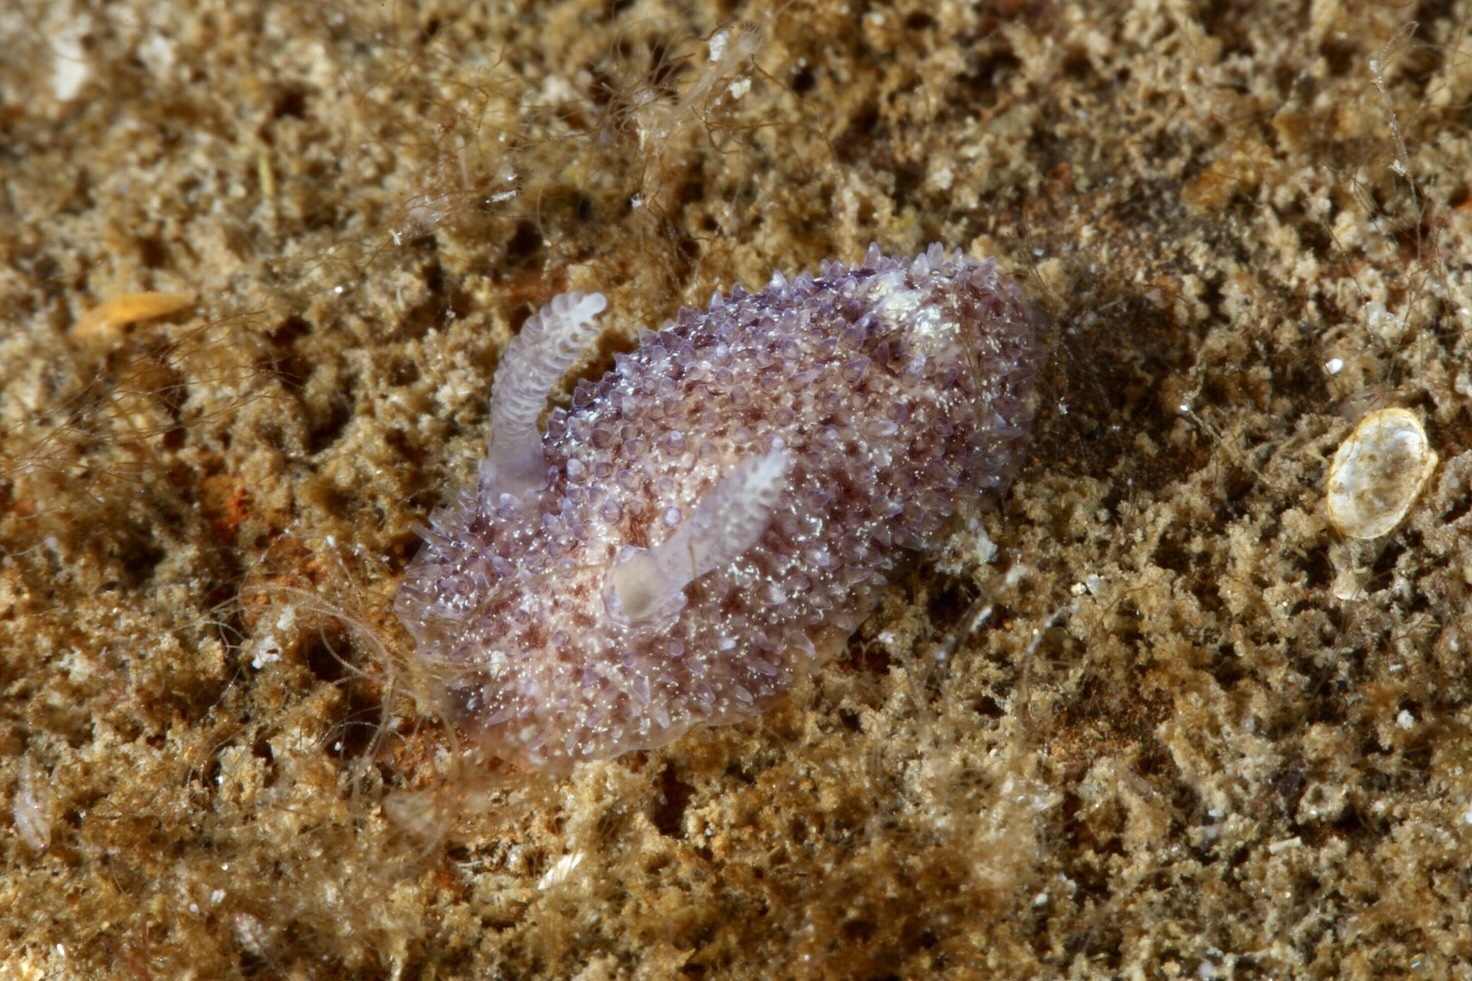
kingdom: Animalia
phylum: Mollusca
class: Gastropoda
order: Nudibranchia
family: Onchidorididae
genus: Acanthodoris
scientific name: Acanthodoris pilosa
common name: Hairy spiny doris
